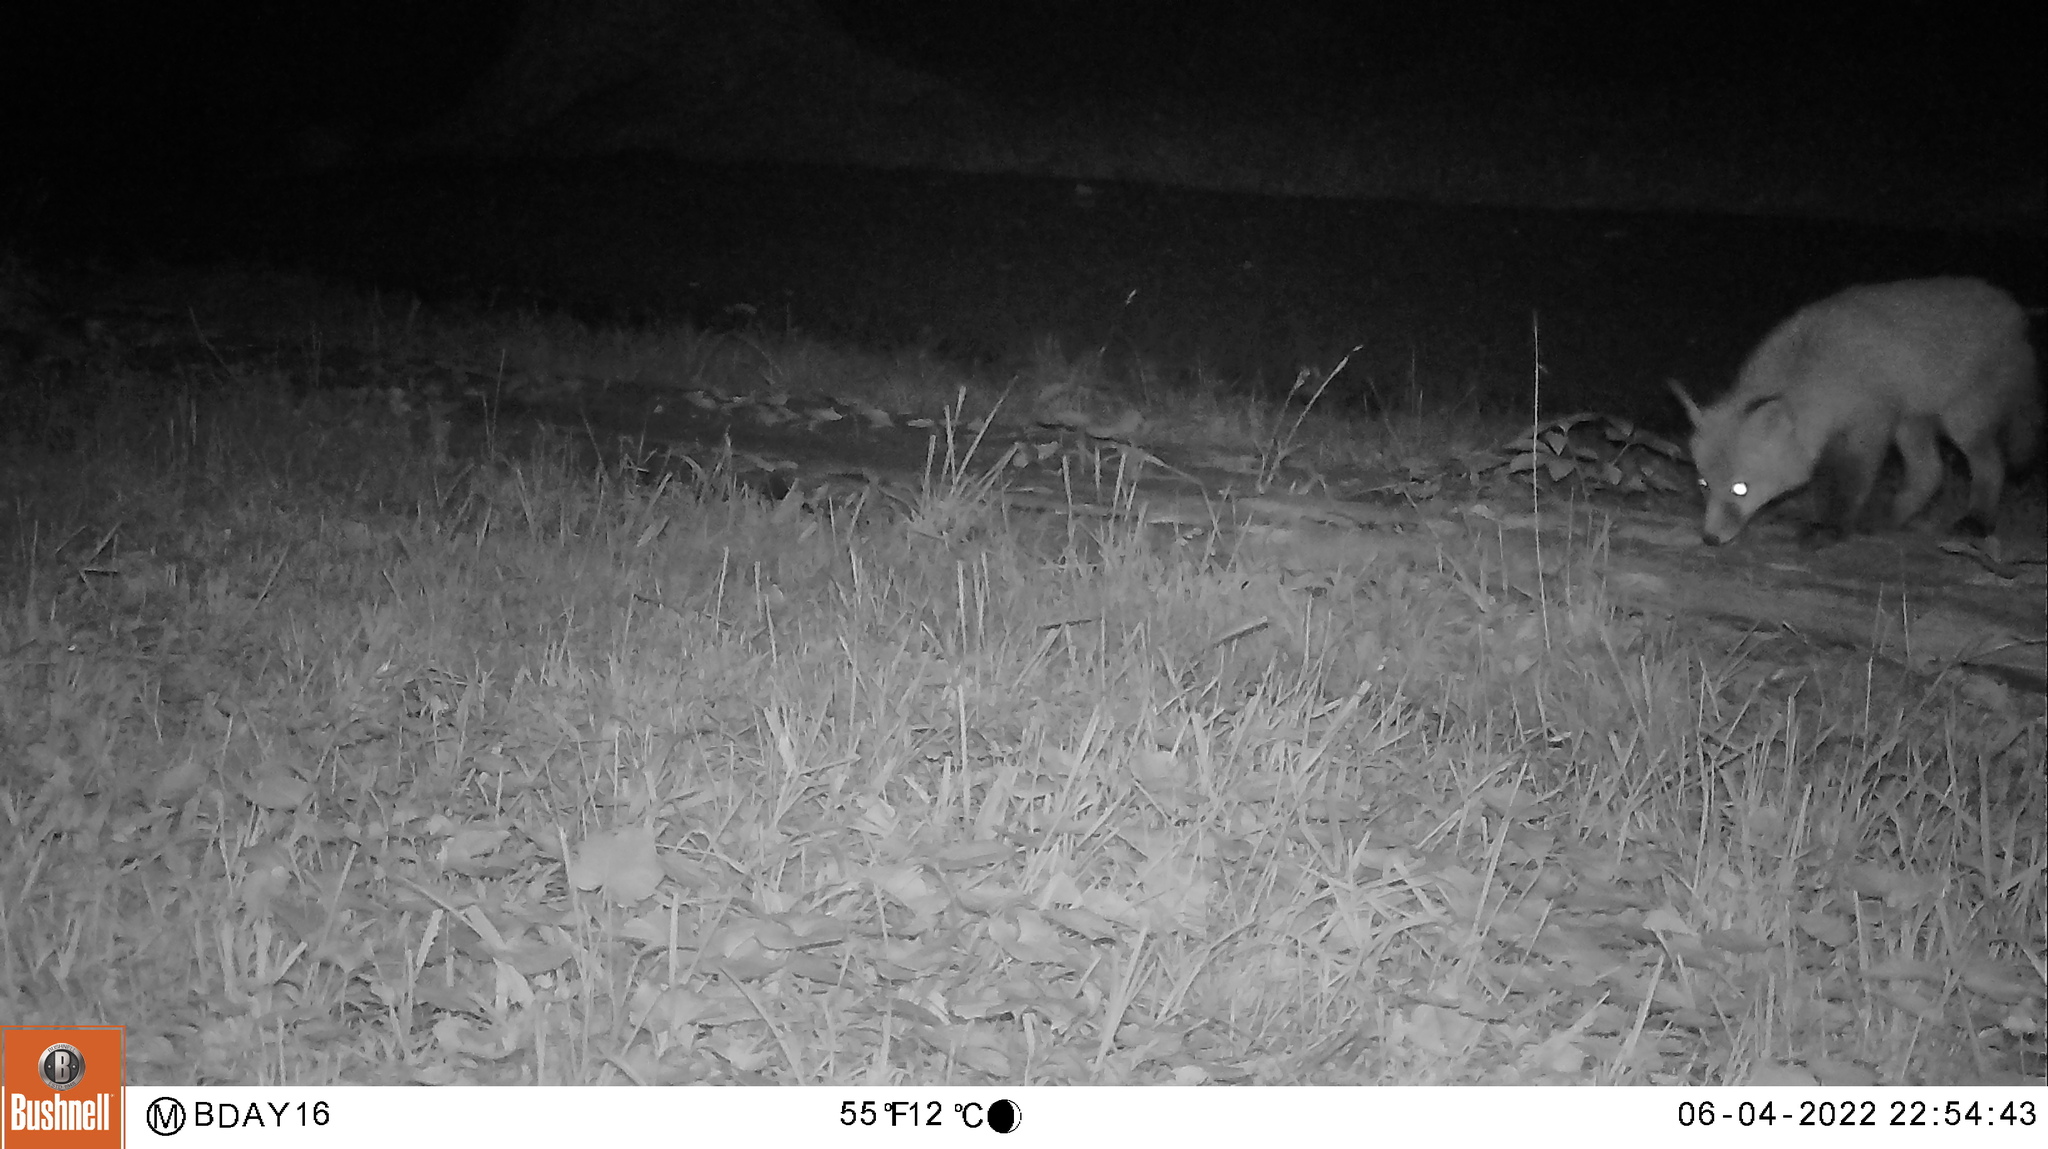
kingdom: Animalia
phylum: Chordata
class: Mammalia
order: Carnivora
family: Canidae
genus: Vulpes
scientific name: Vulpes vulpes
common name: Red fox
